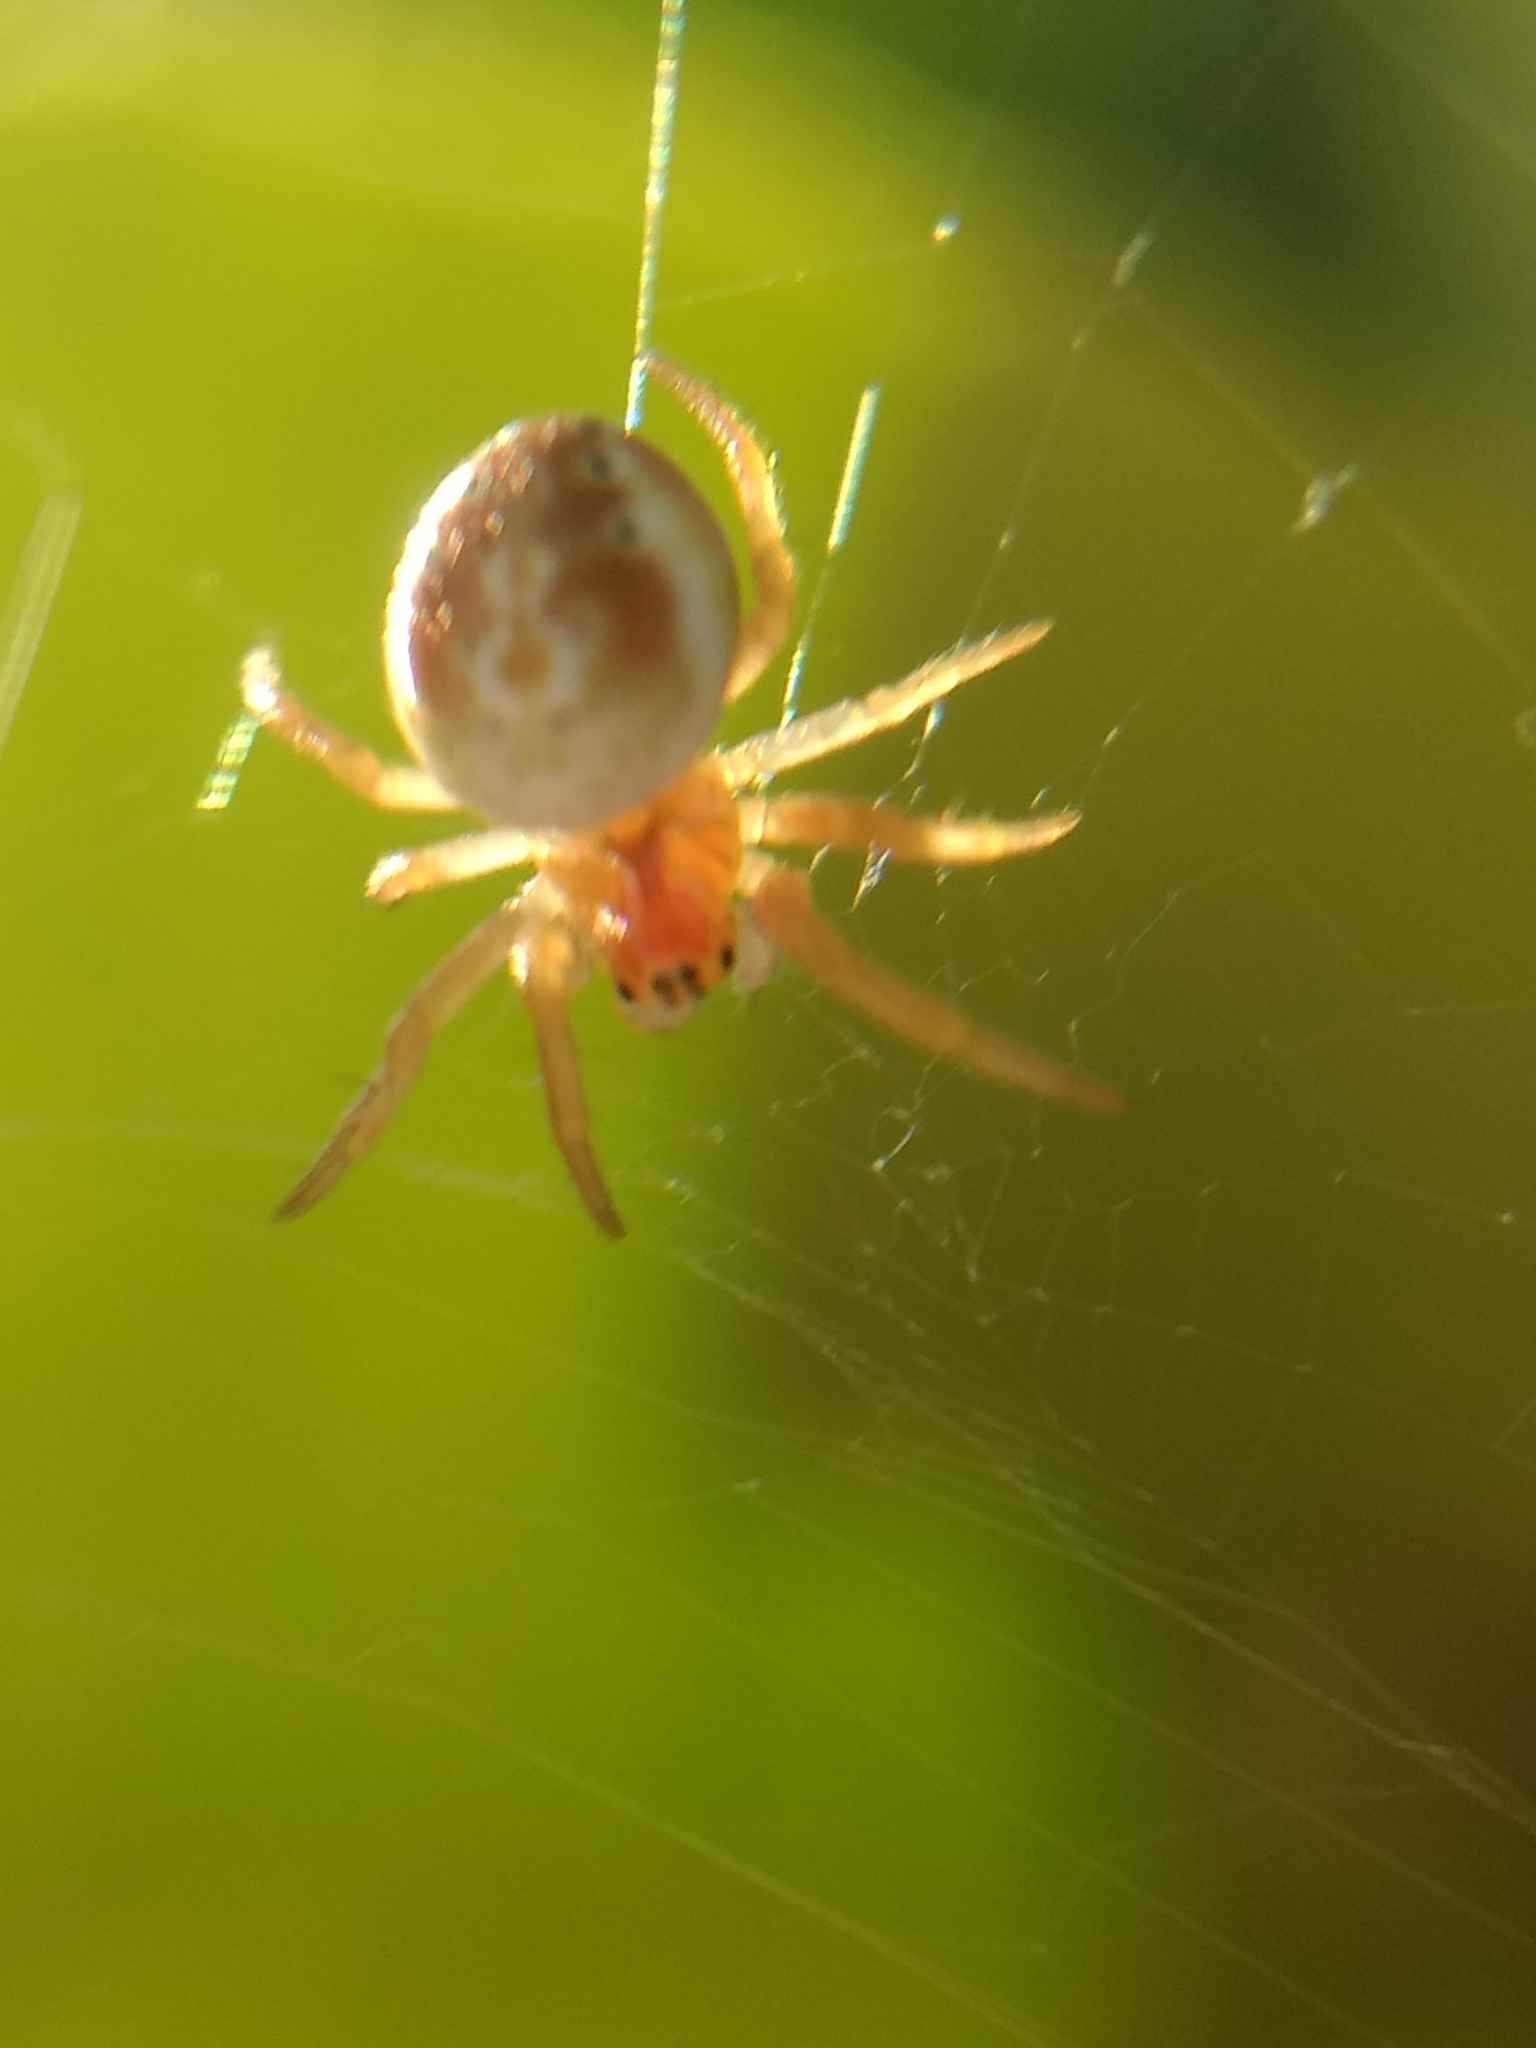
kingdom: Animalia
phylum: Arthropoda
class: Arachnida
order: Araneae
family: Araneidae
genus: Araniella
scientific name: Araniella displicata
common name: Sixspotted orb weaver
